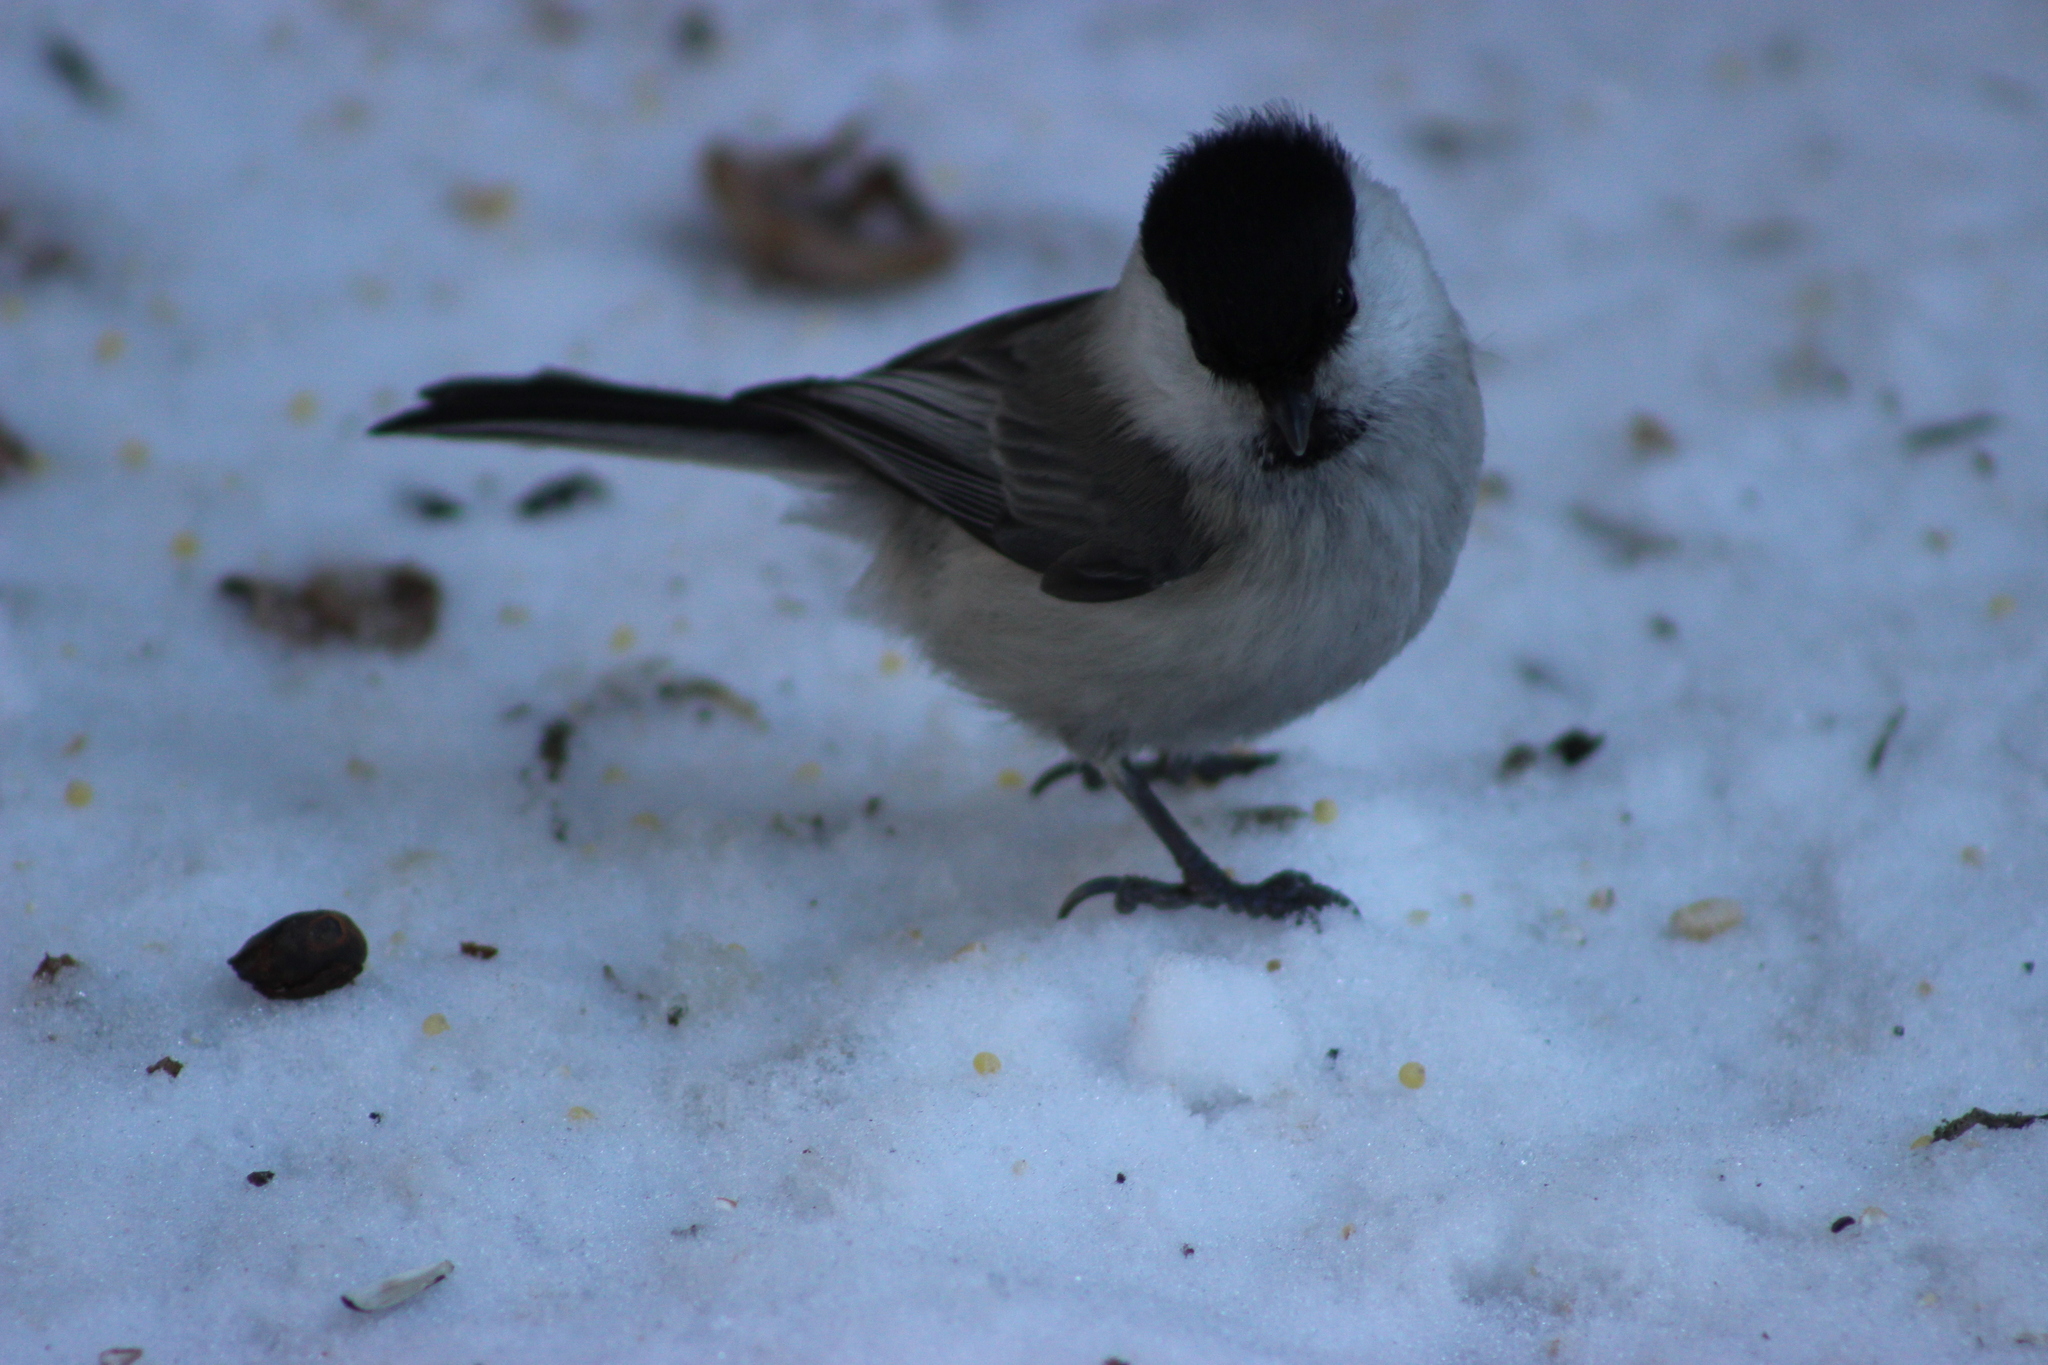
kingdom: Animalia
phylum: Chordata
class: Aves
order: Passeriformes
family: Paridae
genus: Poecile
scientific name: Poecile montanus
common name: Willow tit
